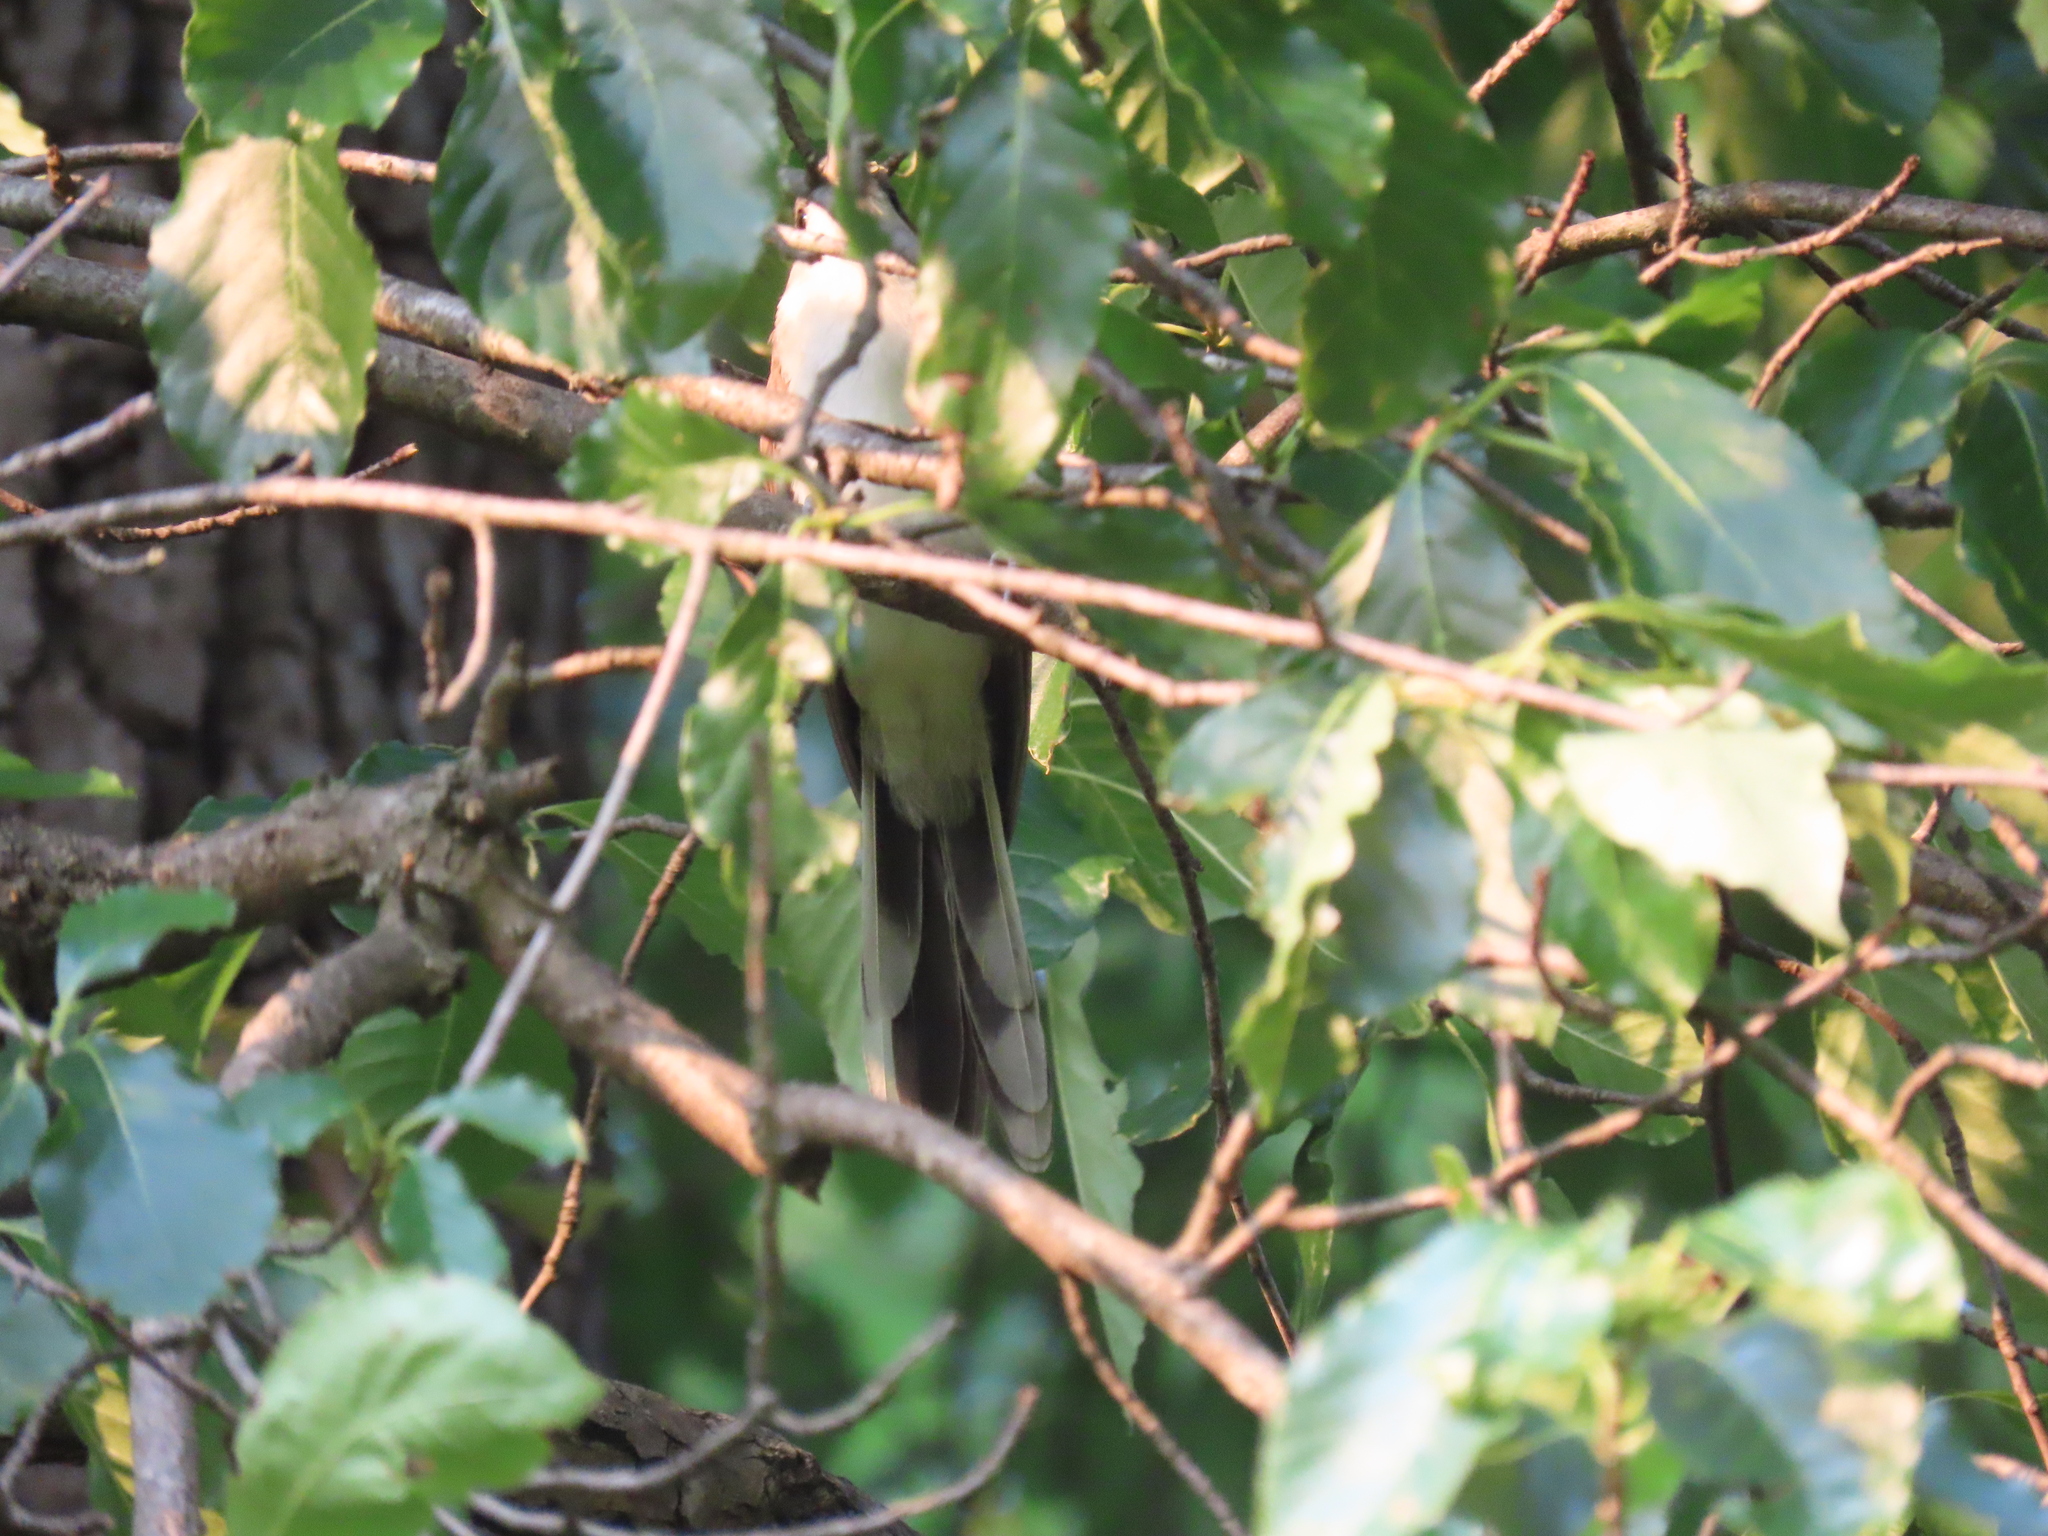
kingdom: Animalia
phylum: Chordata
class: Aves
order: Cuculiformes
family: Cuculidae
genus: Coccyzus
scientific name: Coccyzus americanus
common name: Yellow-billed cuckoo
